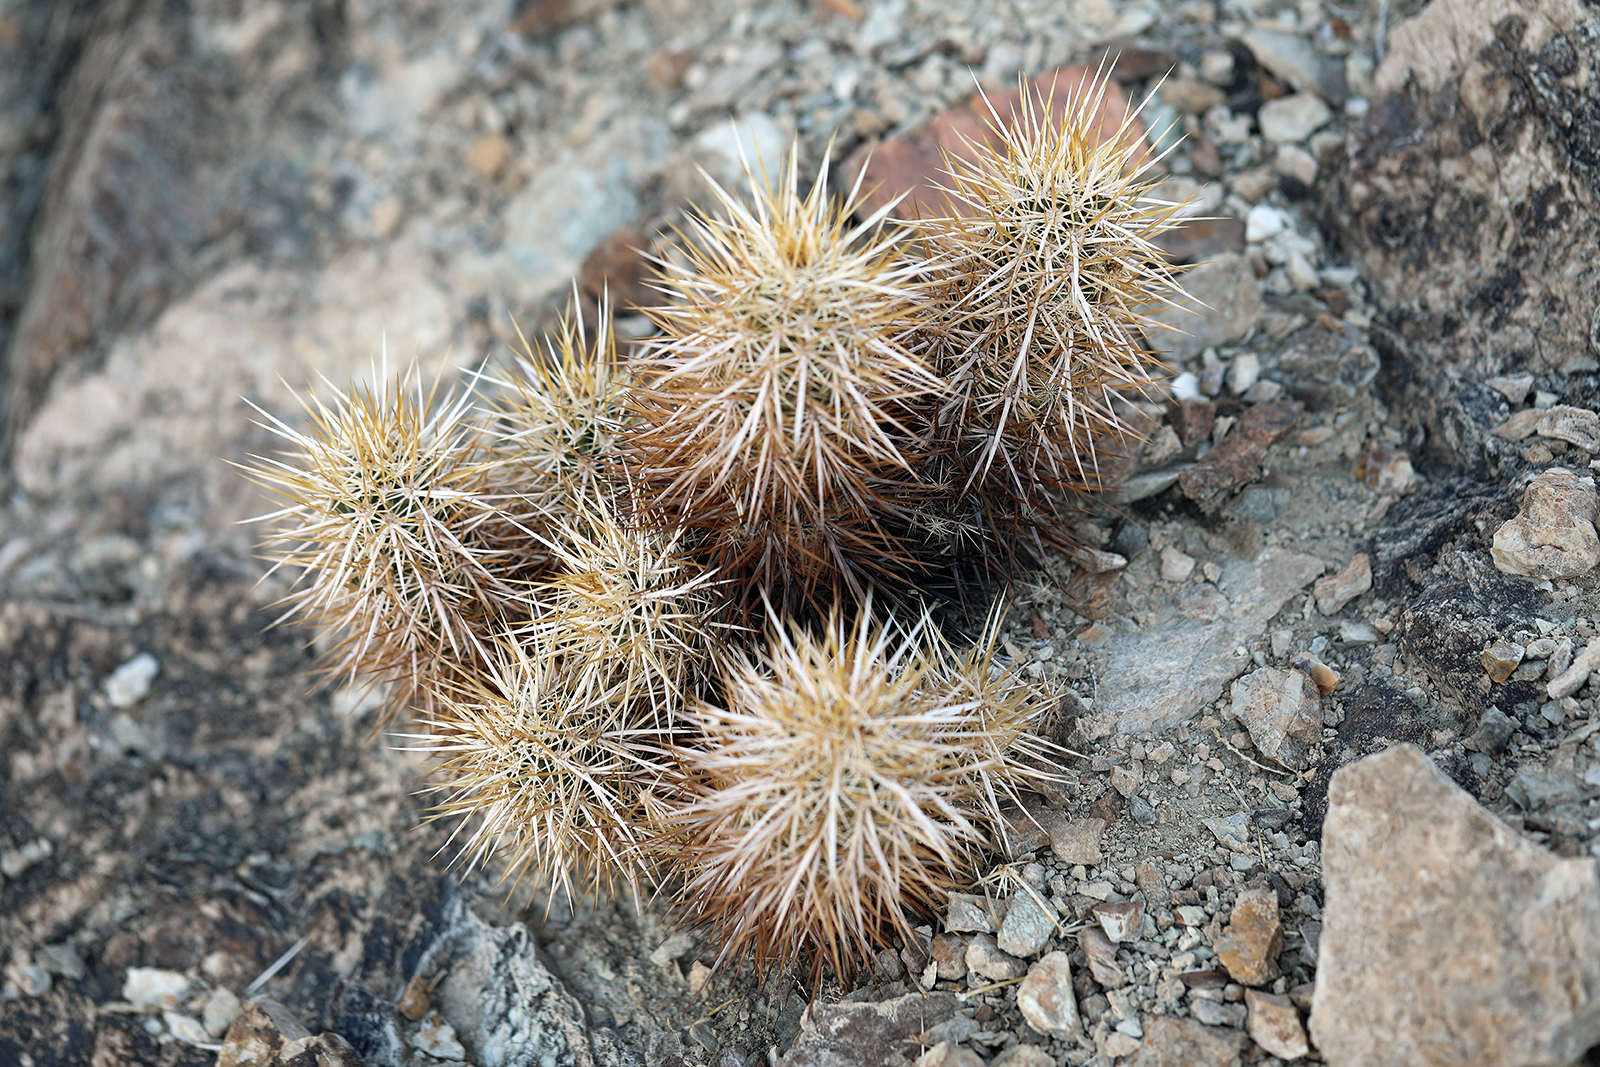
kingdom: Plantae
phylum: Tracheophyta
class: Magnoliopsida
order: Caryophyllales
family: Cactaceae
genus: Echinocereus
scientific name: Echinocereus engelmannii
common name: Engelmann's hedgehog cactus
